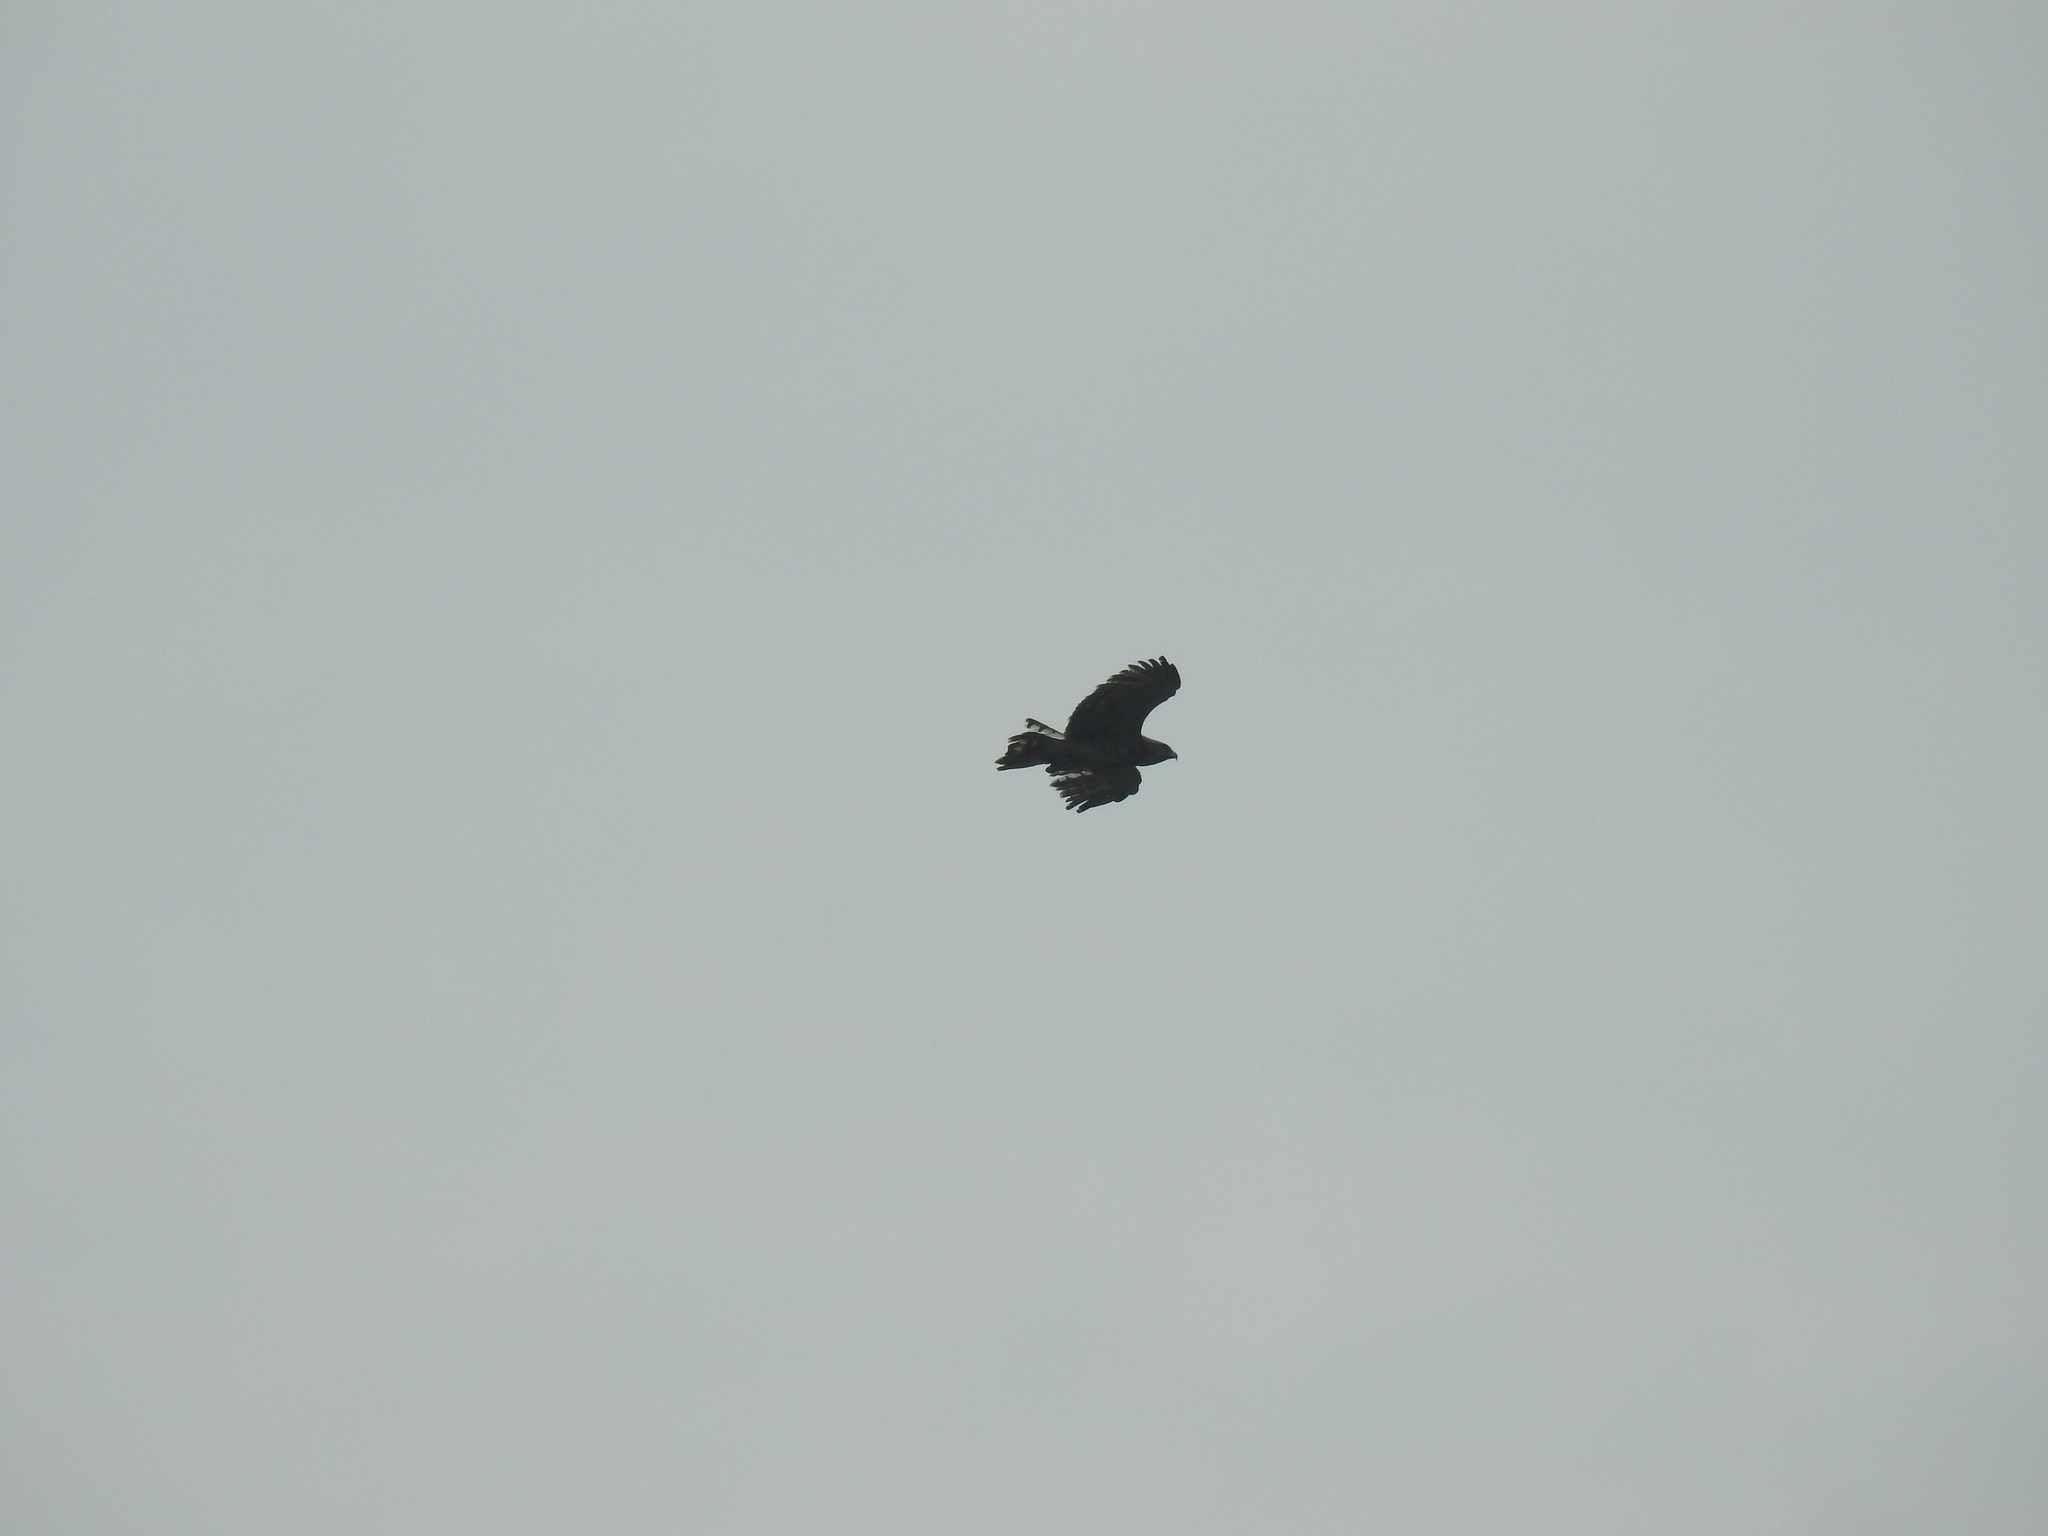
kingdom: Animalia
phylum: Chordata
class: Aves
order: Accipitriformes
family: Accipitridae
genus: Circaetus
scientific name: Circaetus gallicus
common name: Short-toed snake eagle
